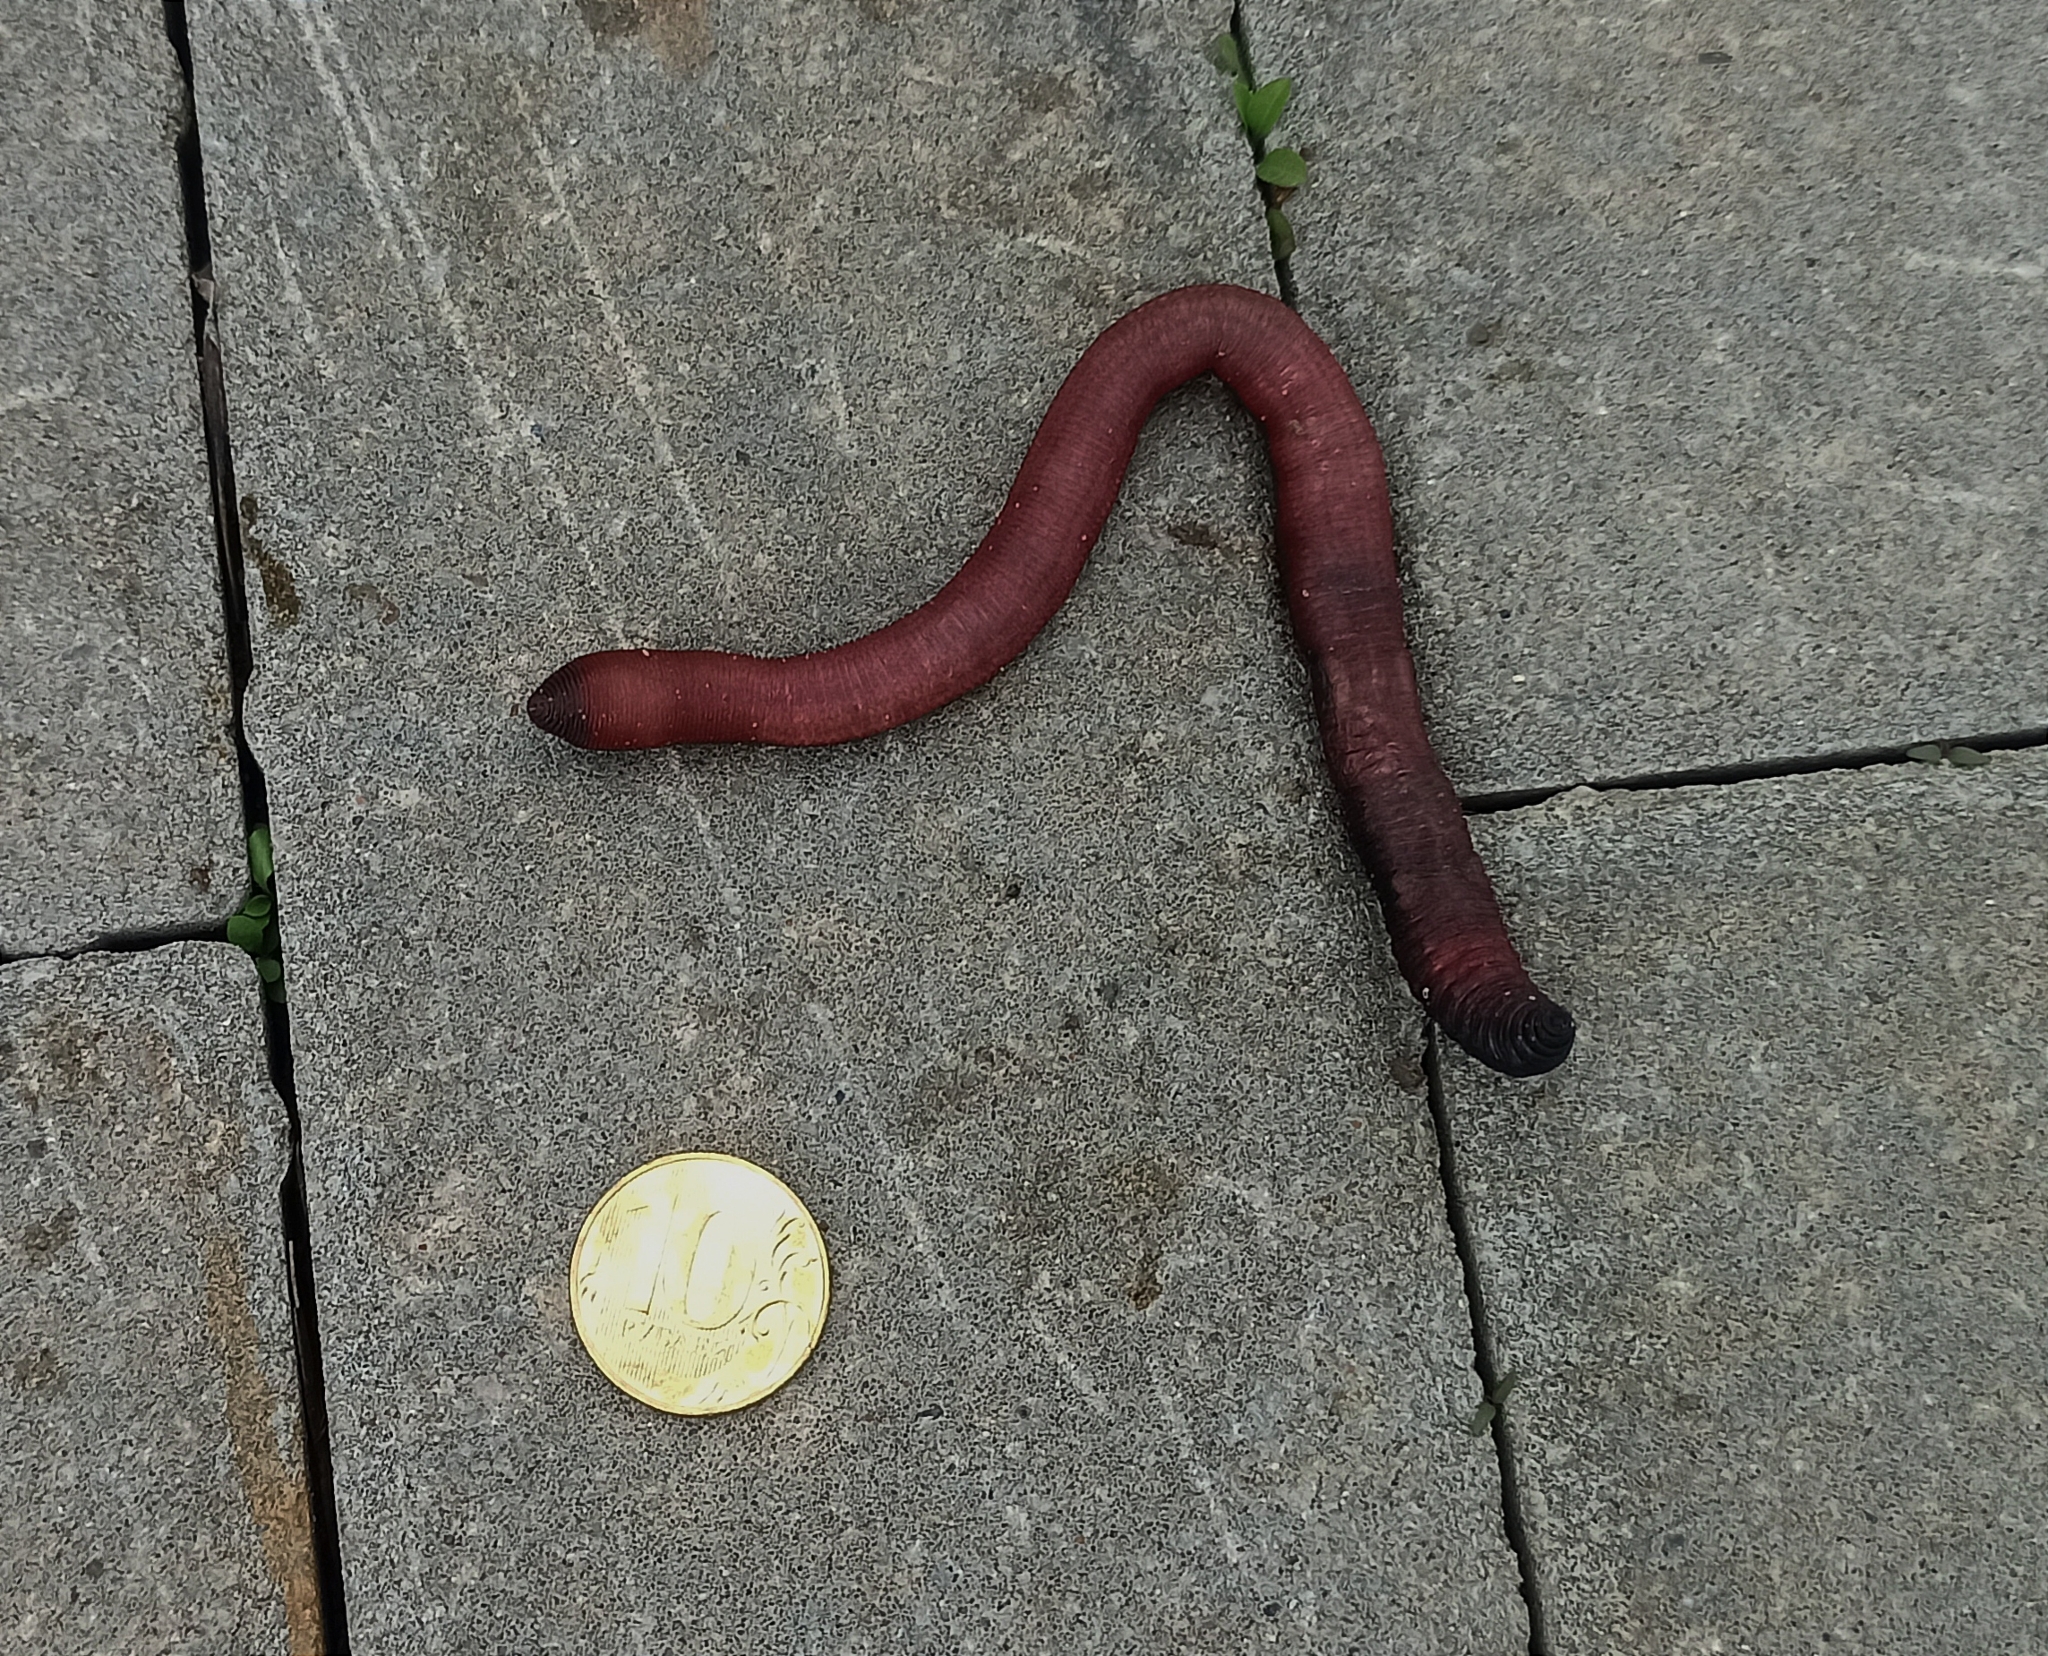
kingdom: Animalia
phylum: Annelida
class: Clitellata
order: Crassiclitellata
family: Lumbricidae
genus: Lumbricus
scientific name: Lumbricus terrestris
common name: Common earthworm
